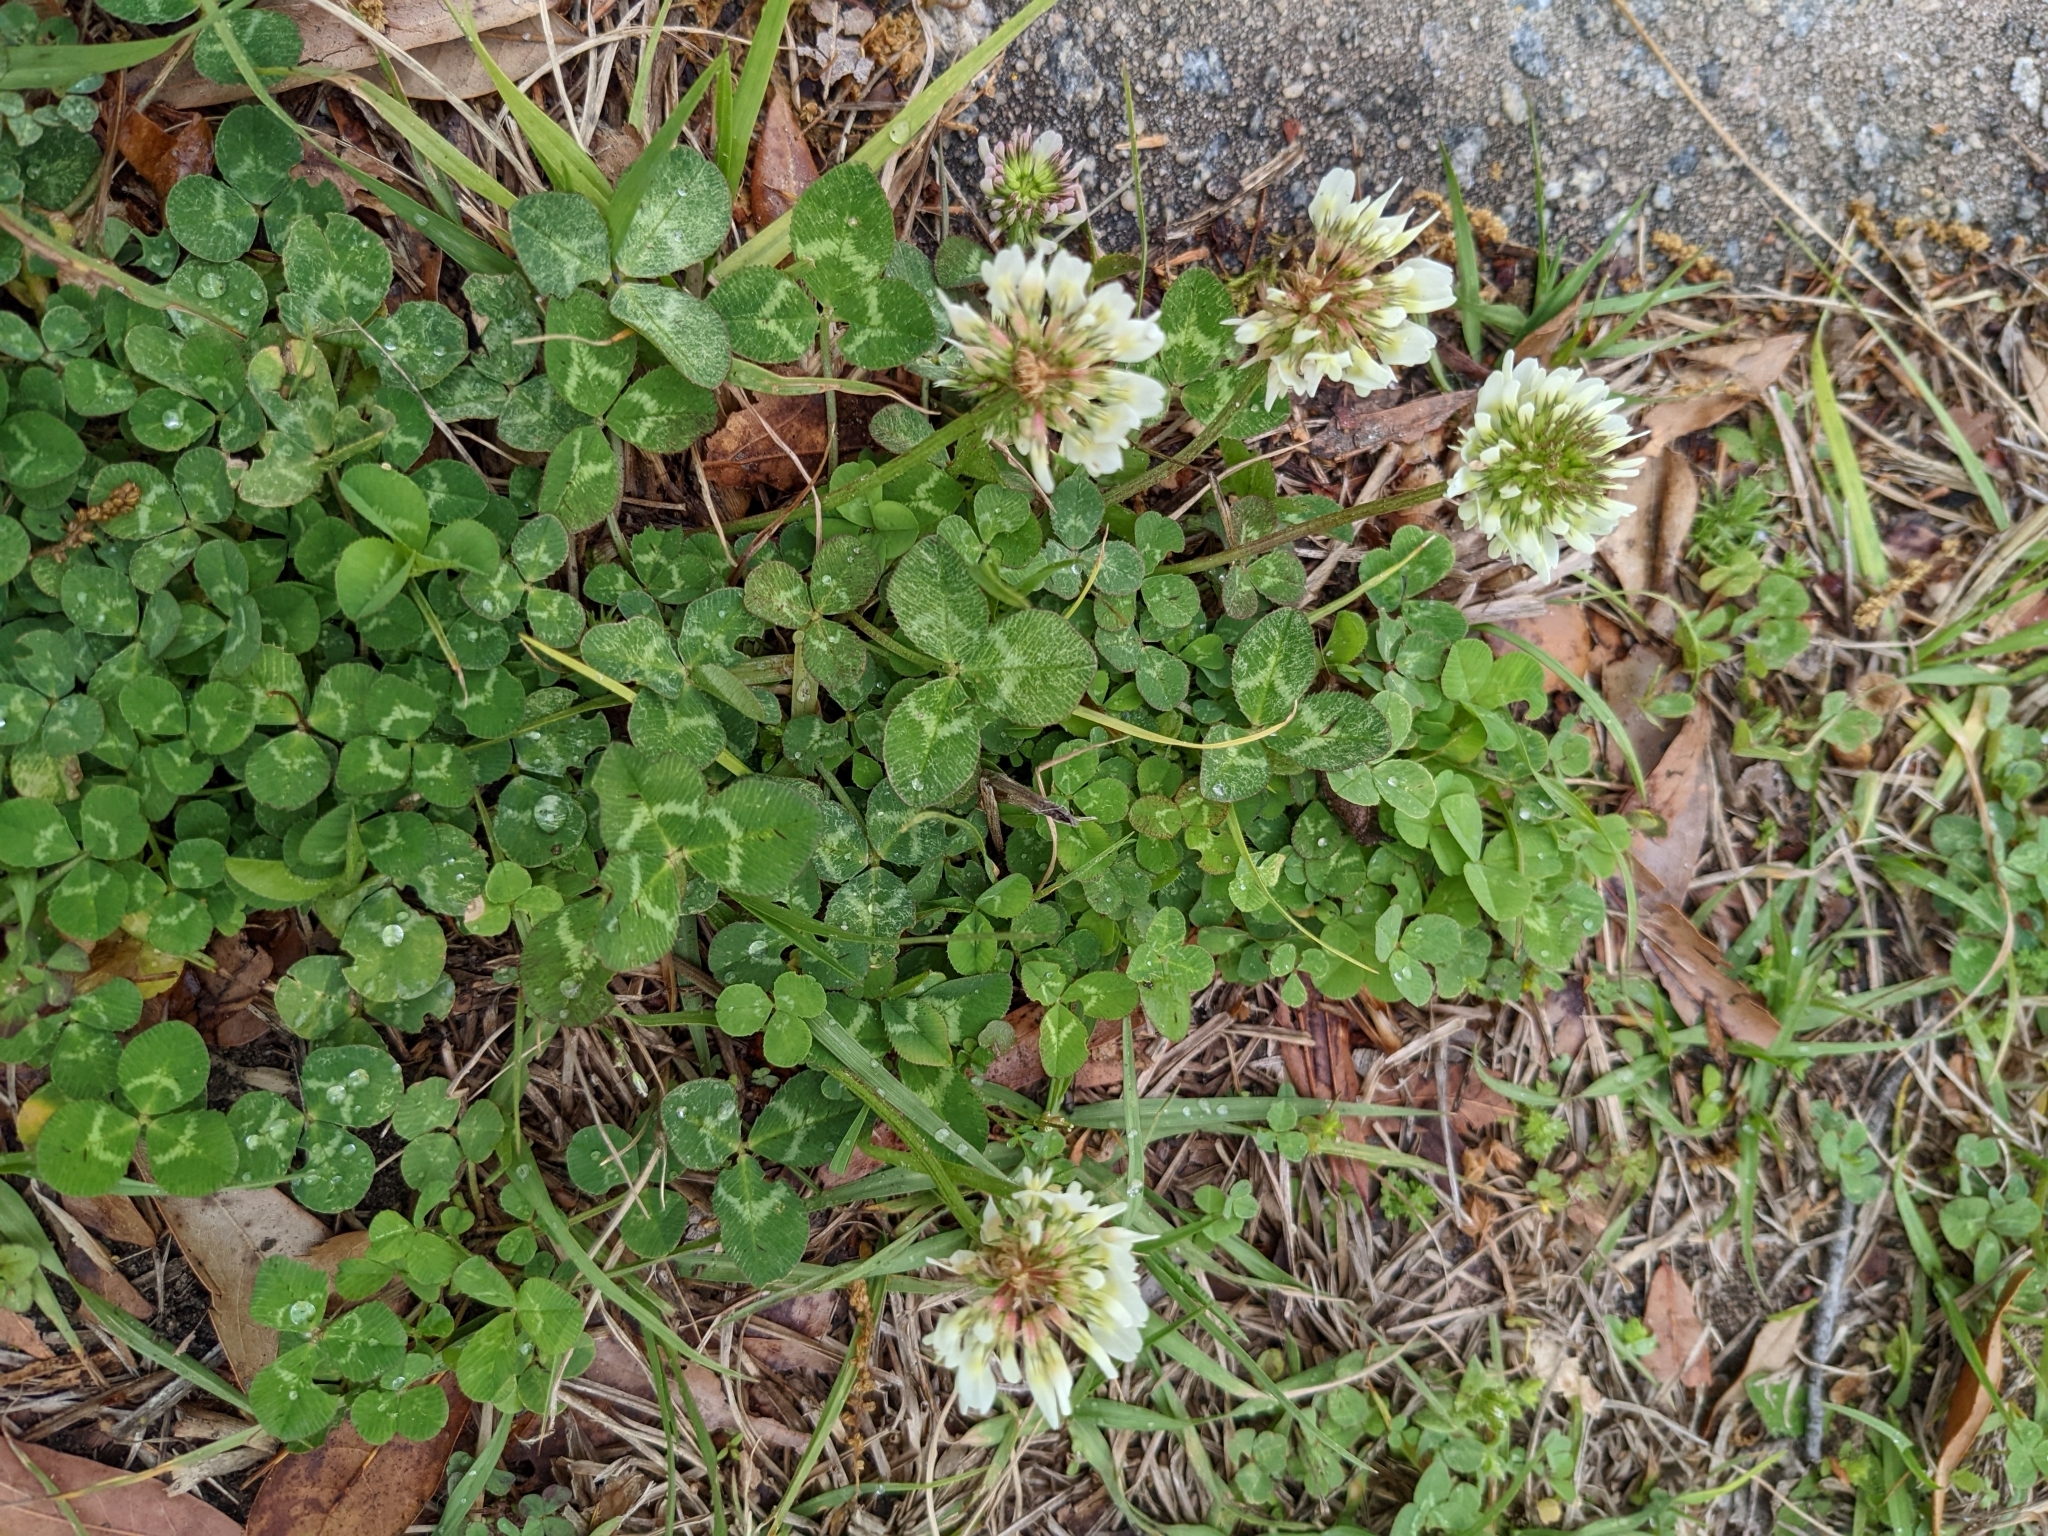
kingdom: Plantae
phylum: Tracheophyta
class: Magnoliopsida
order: Fabales
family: Fabaceae
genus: Trifolium
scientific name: Trifolium repens
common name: White clover
